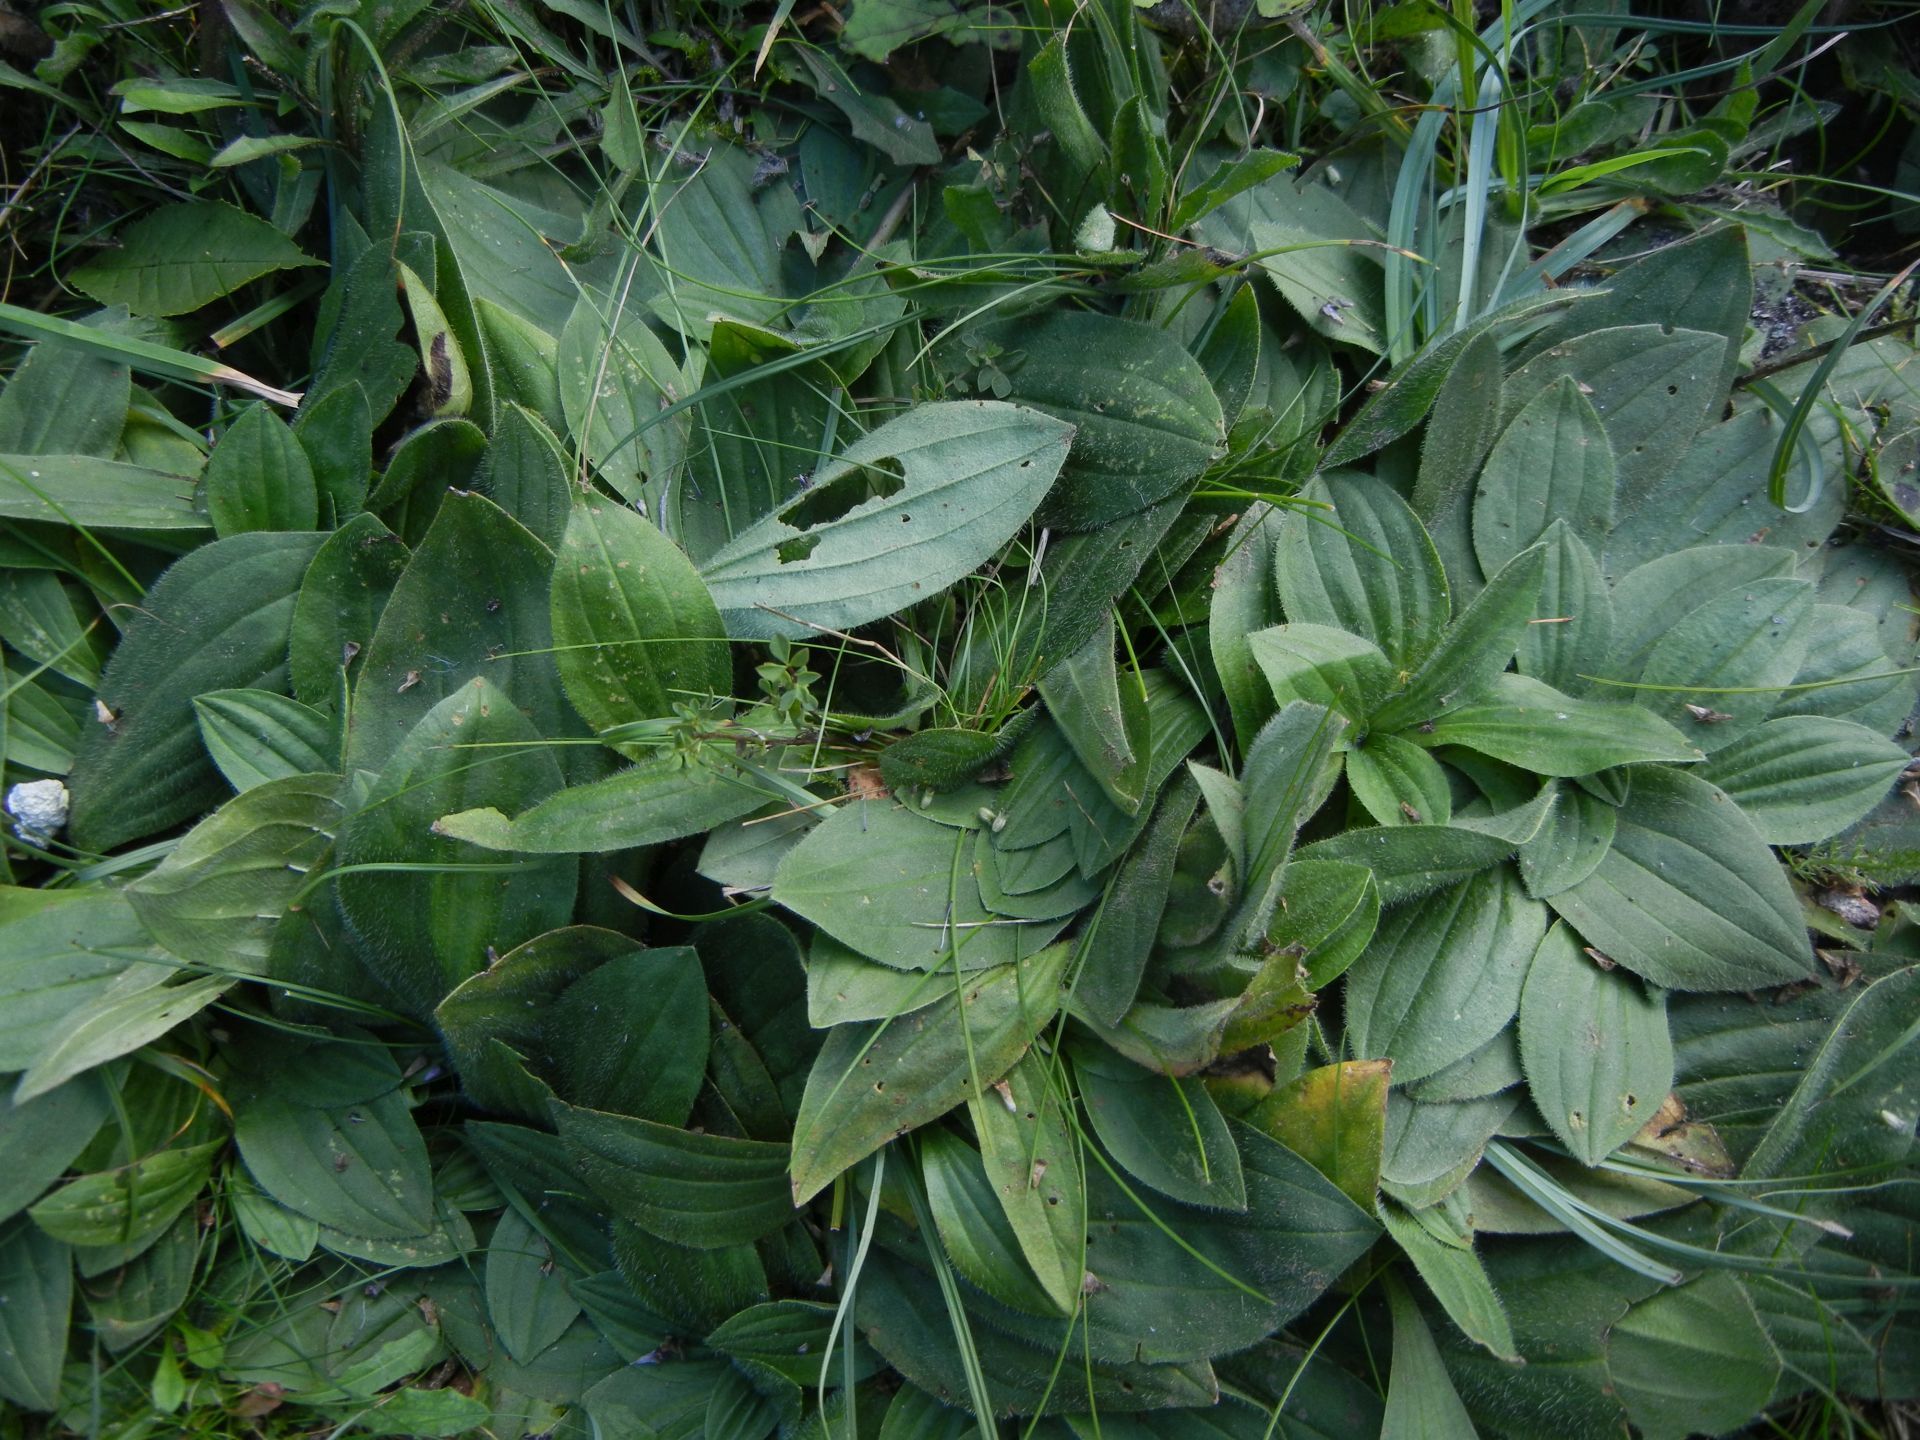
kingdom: Plantae
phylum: Tracheophyta
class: Magnoliopsida
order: Lamiales
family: Plantaginaceae
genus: Plantago
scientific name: Plantago media
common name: Hoary plantain
